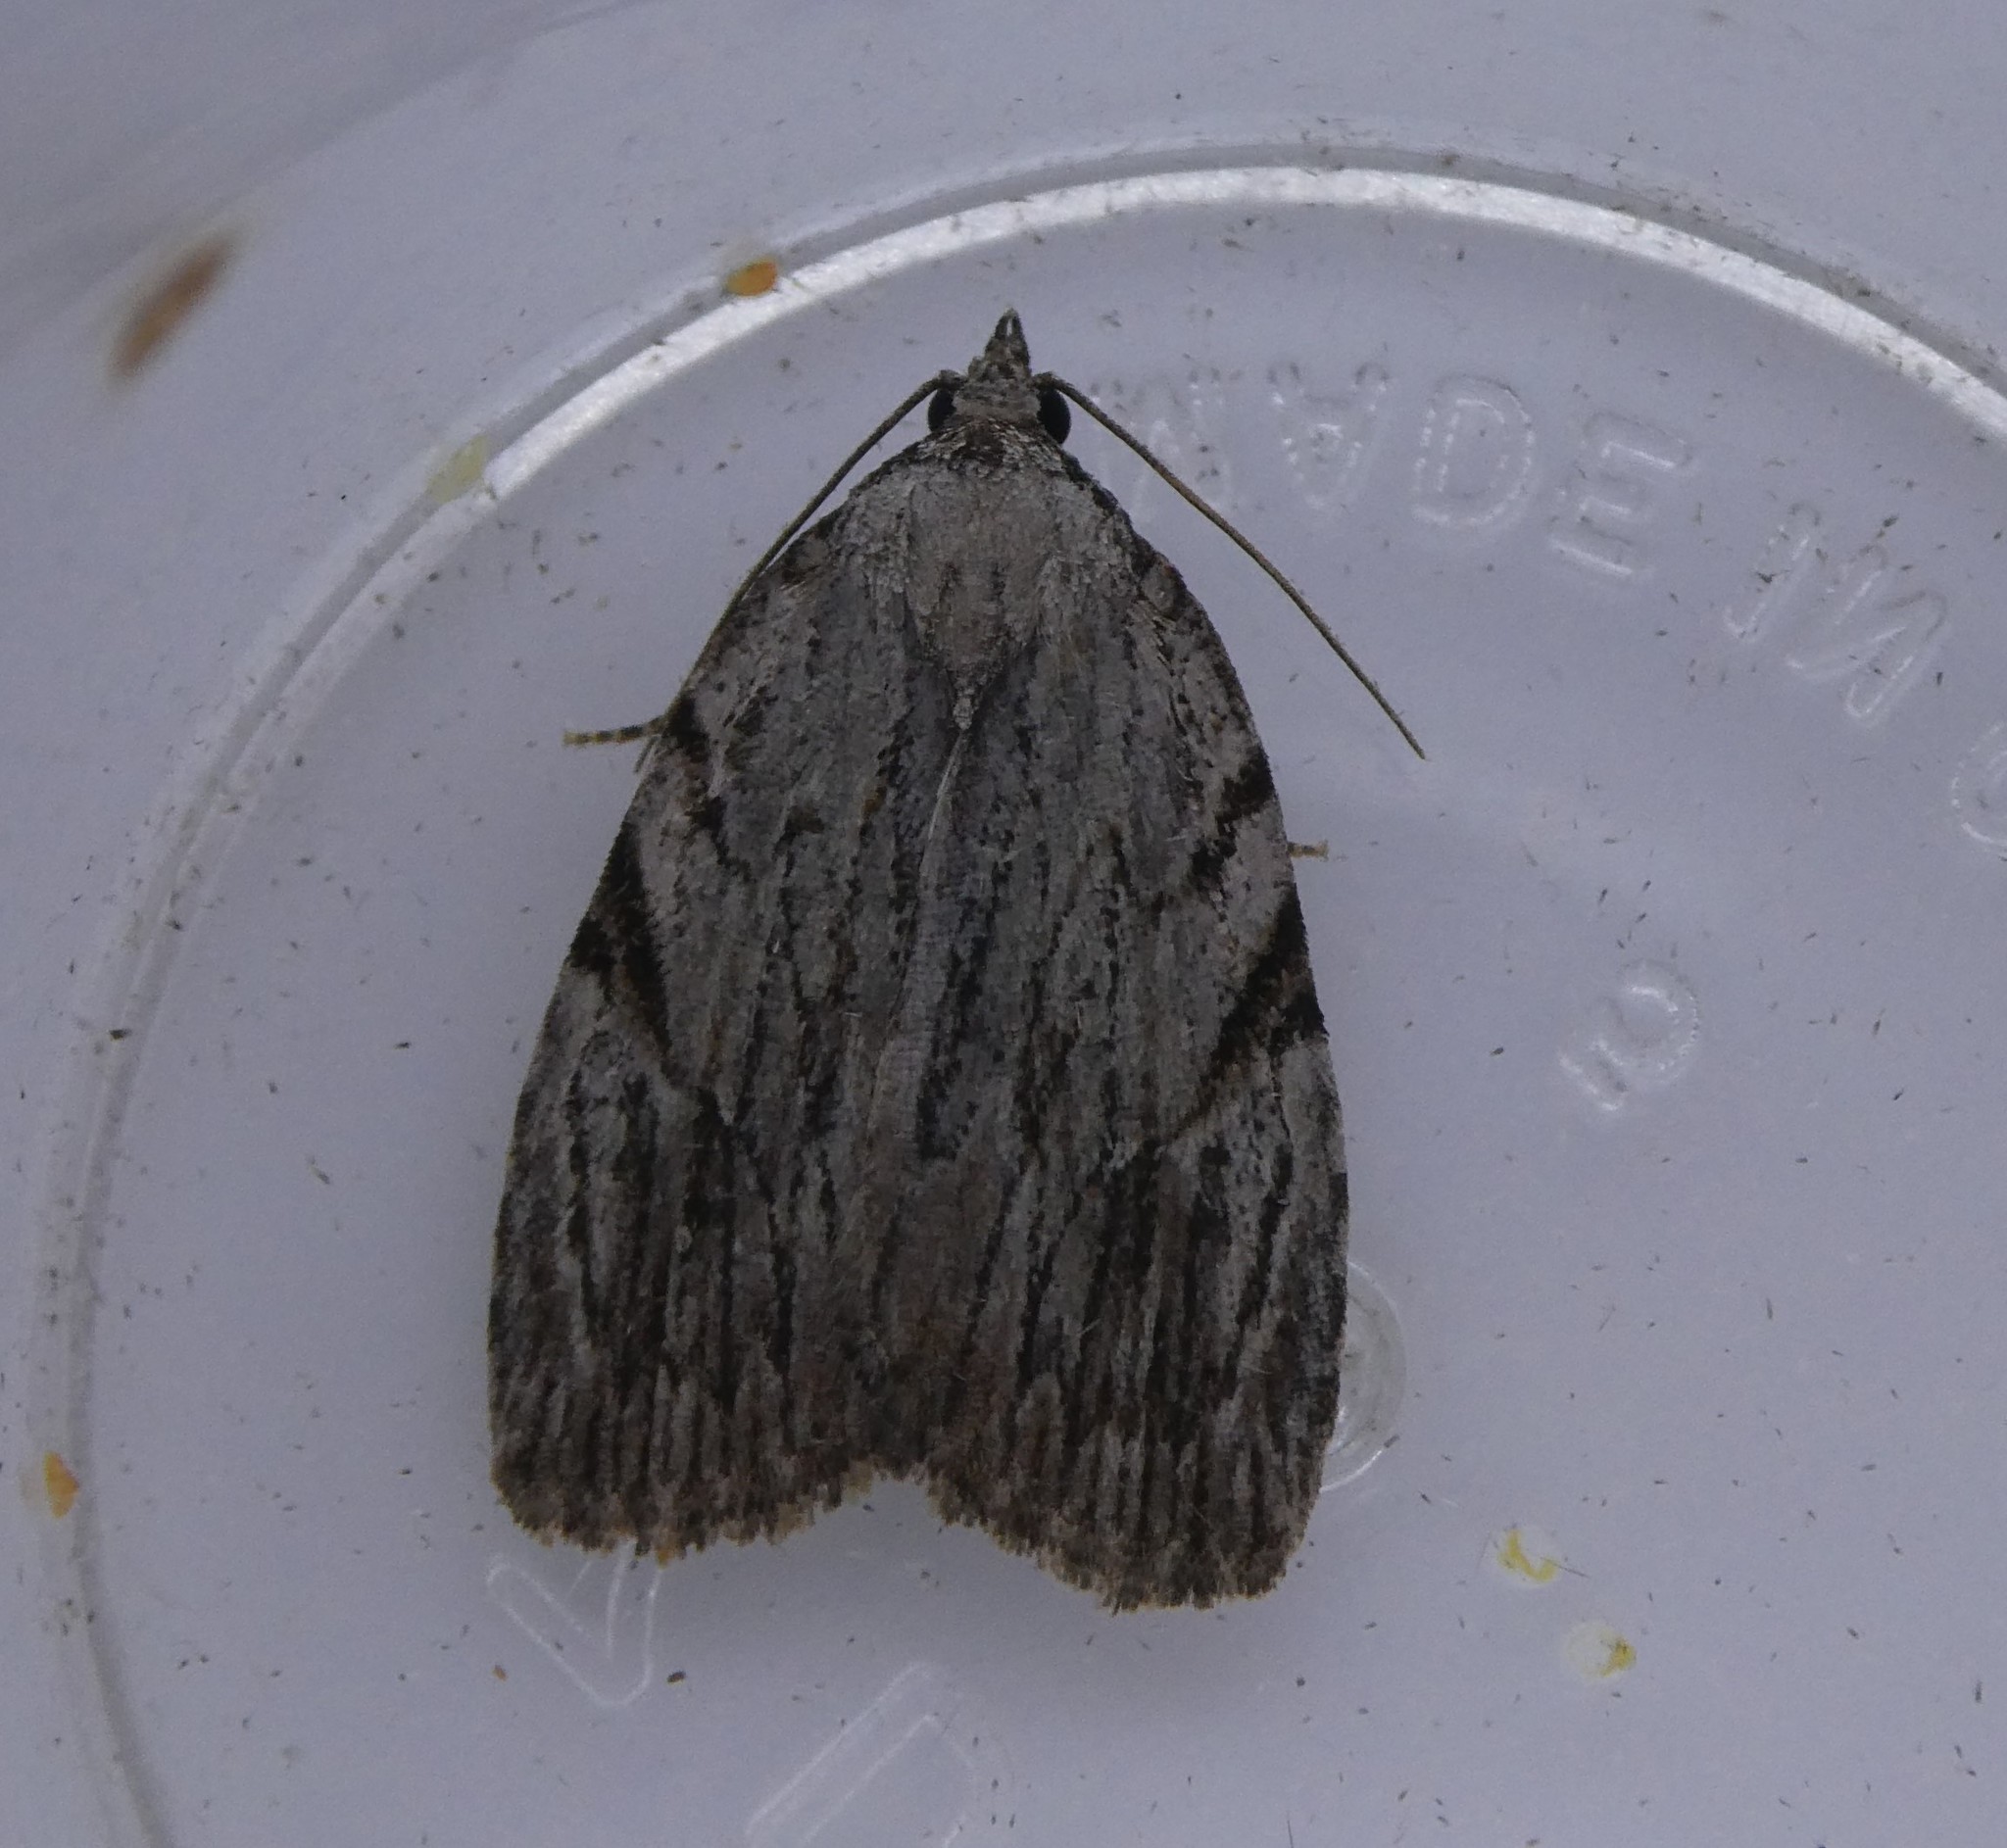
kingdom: Animalia
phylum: Arthropoda
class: Insecta
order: Lepidoptera
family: Noctuidae
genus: Balsa
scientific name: Balsa tristrigella
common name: Three-lined balsa moth
